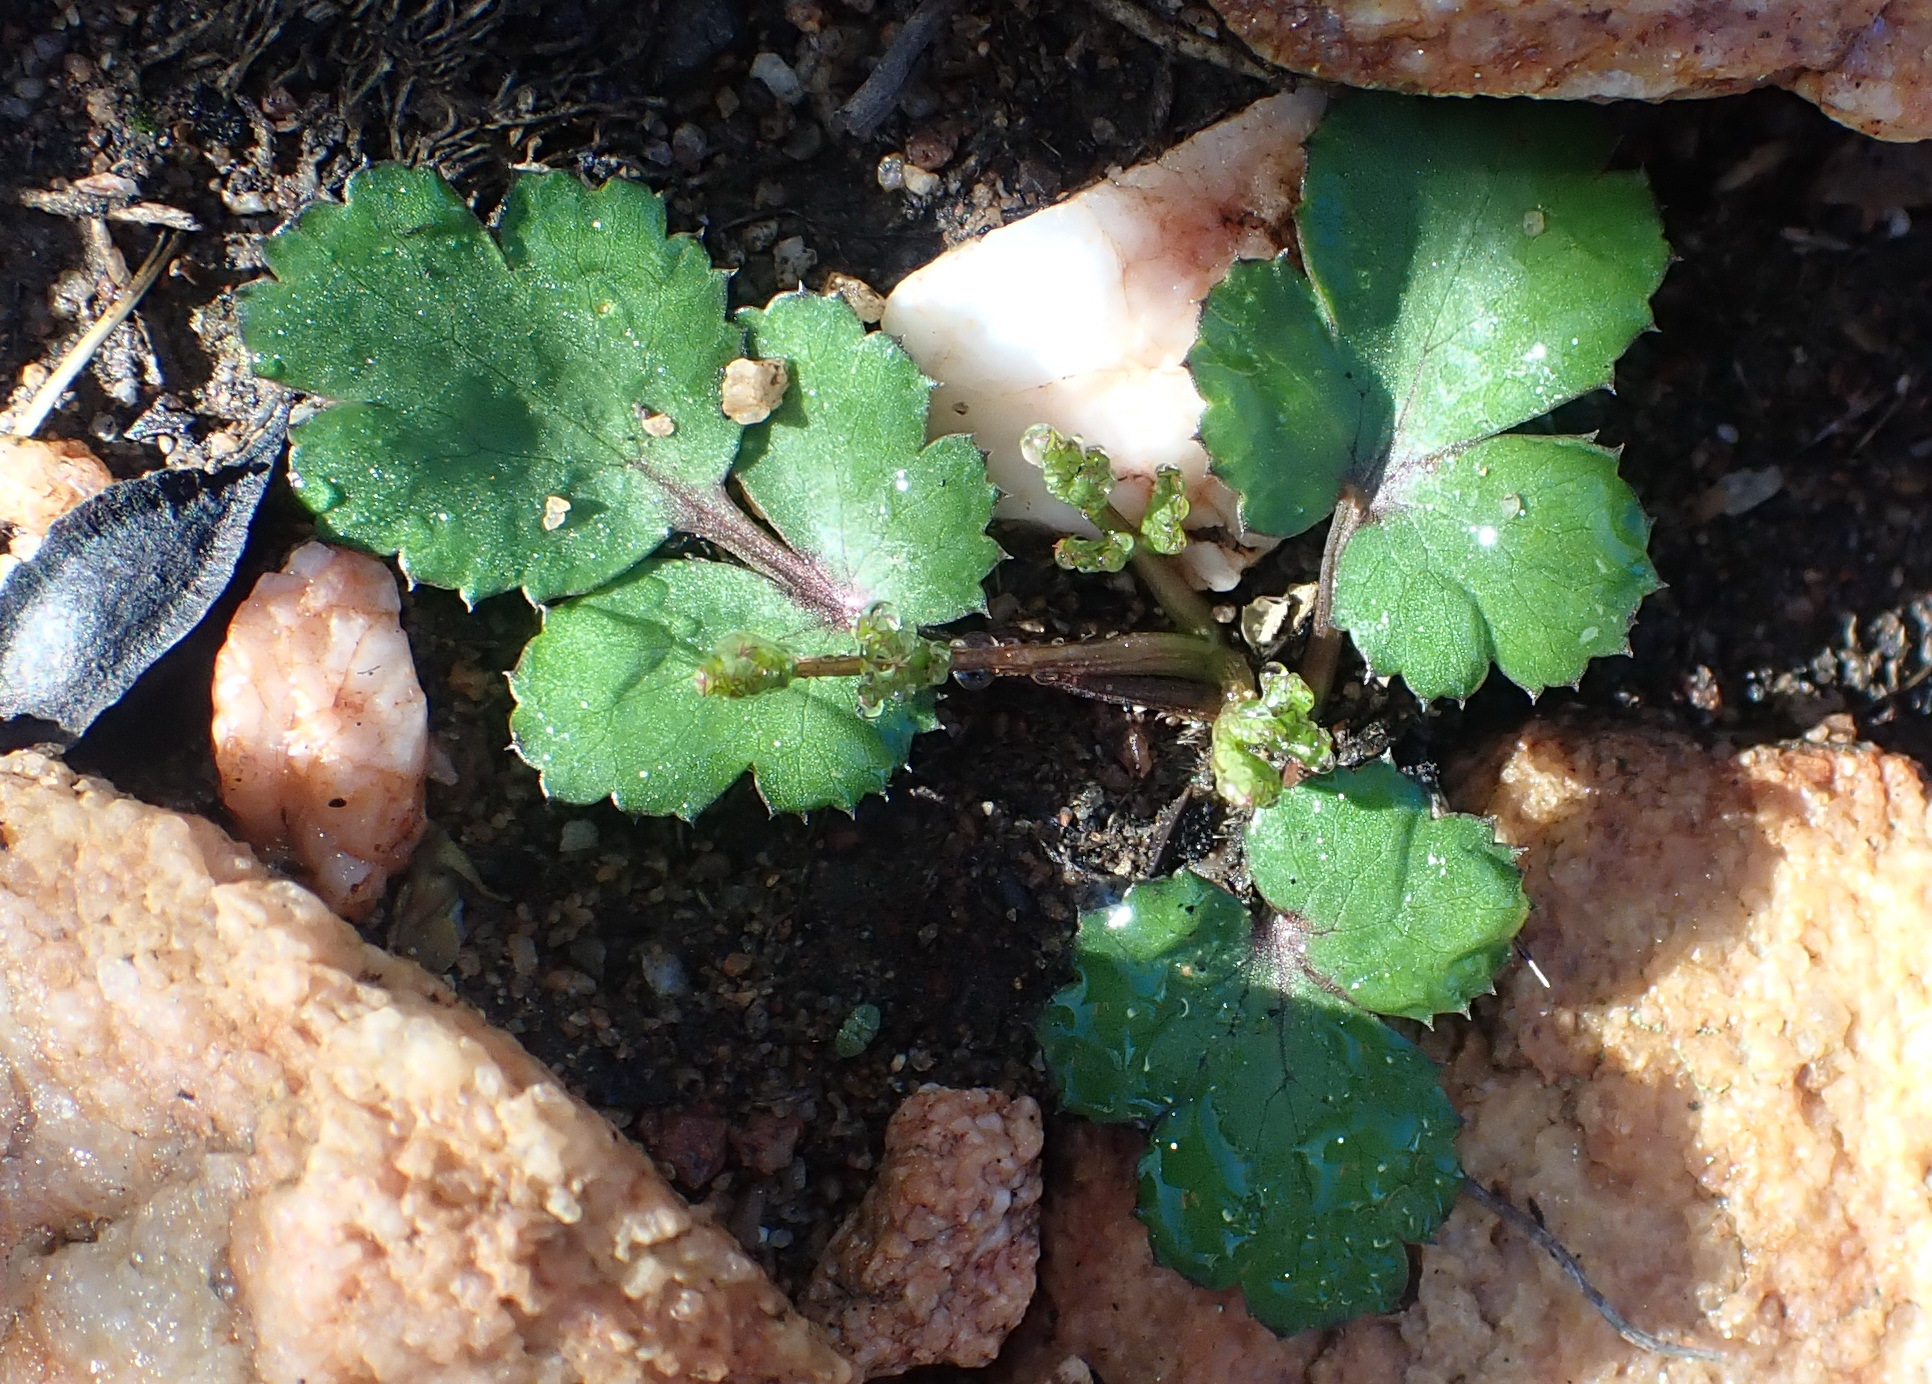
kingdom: Plantae
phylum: Tracheophyta
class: Magnoliopsida
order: Apiales
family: Apiaceae
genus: Chamarea
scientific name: Chamarea gracillima
